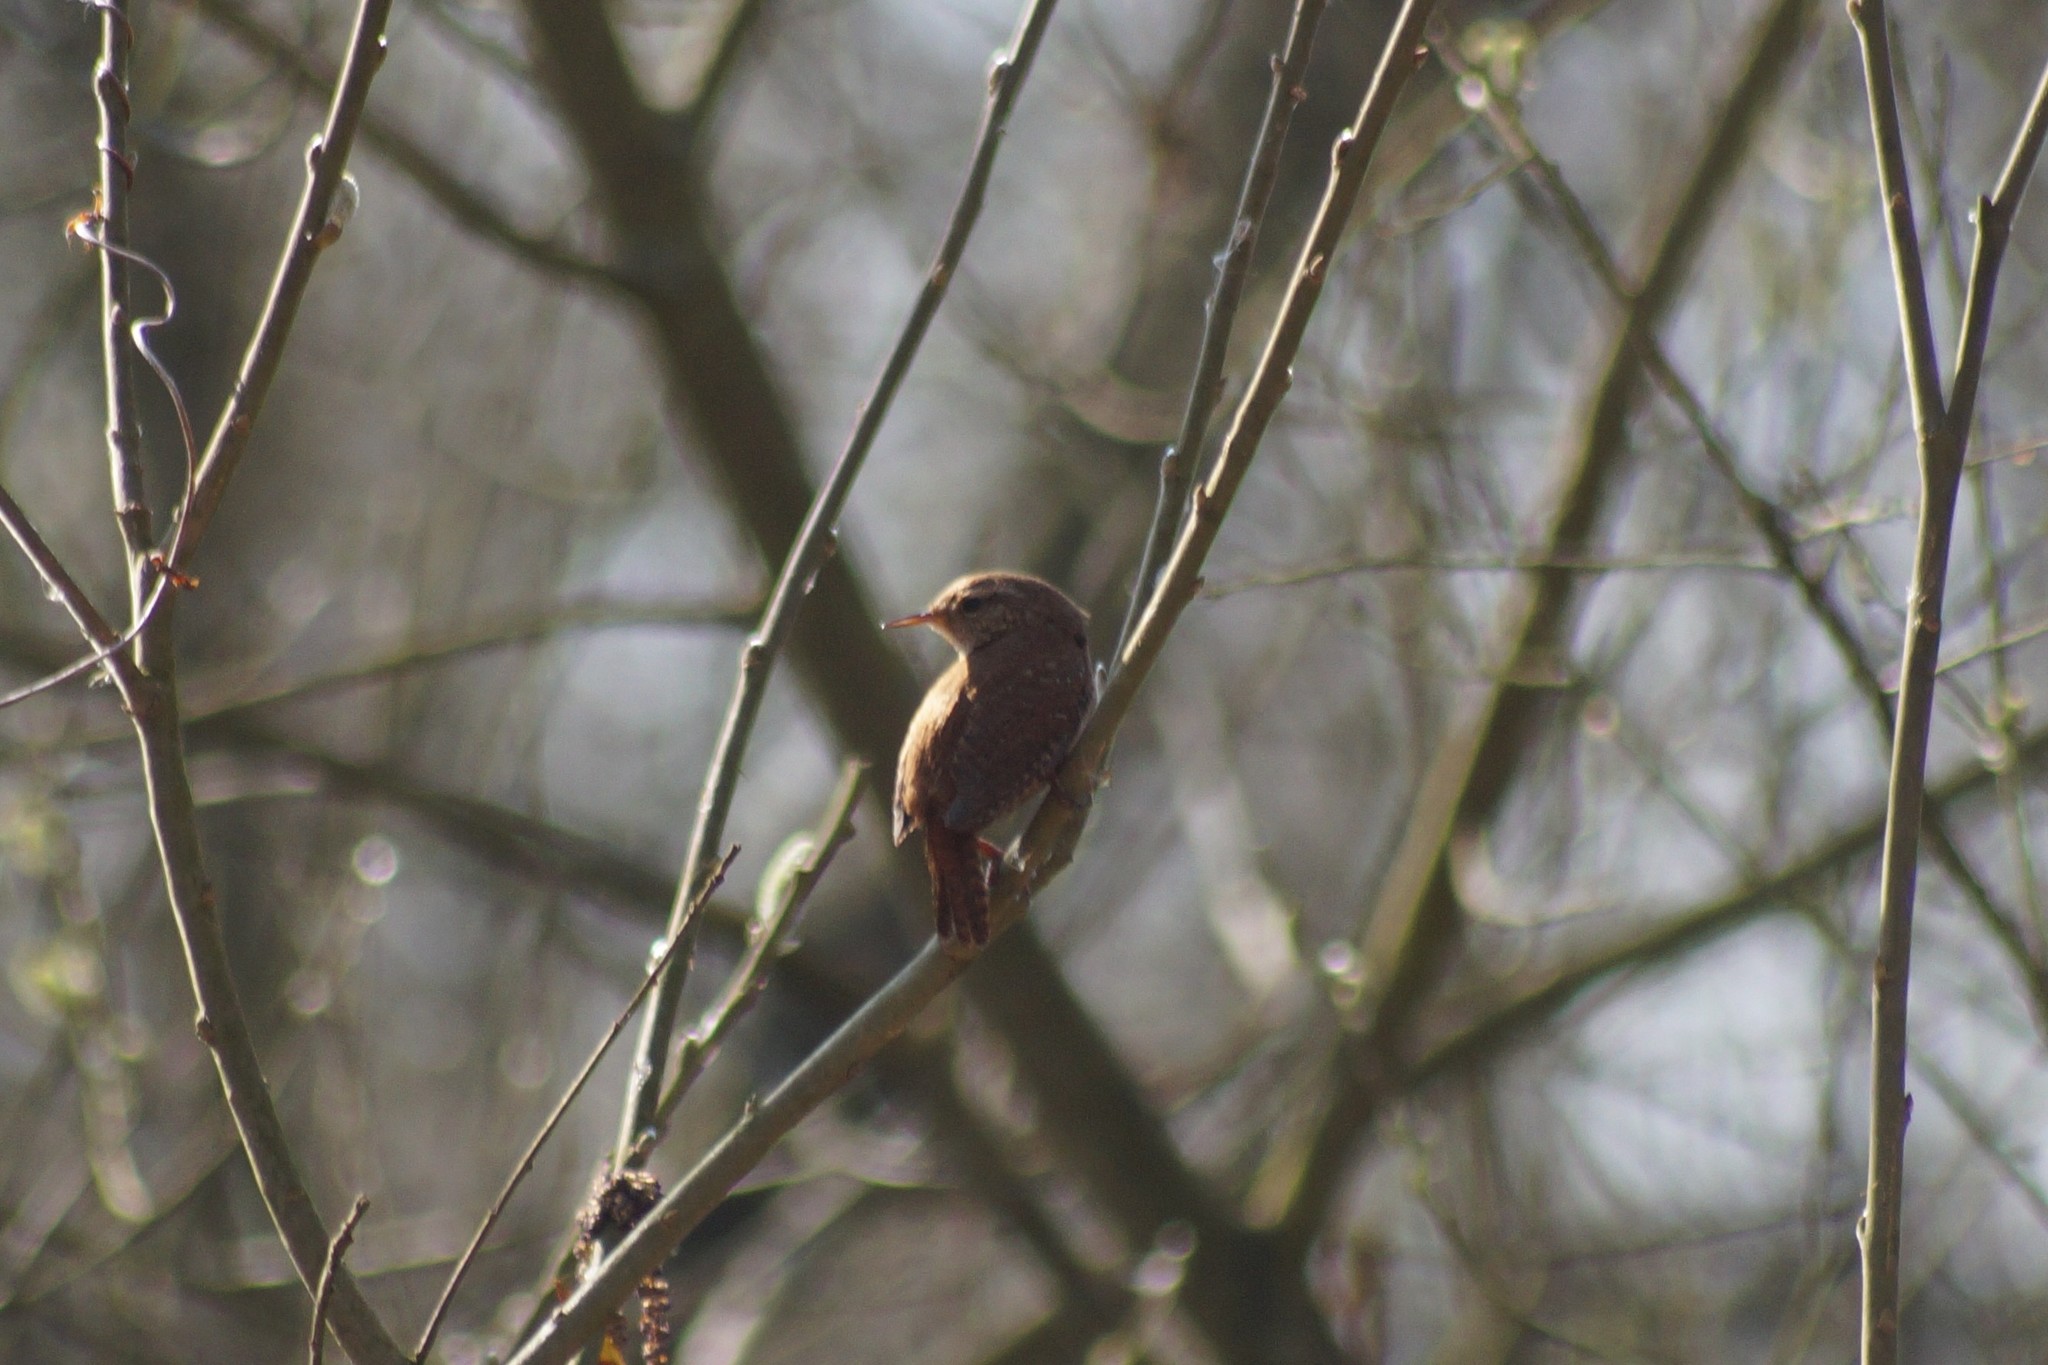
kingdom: Animalia
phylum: Chordata
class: Aves
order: Passeriformes
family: Troglodytidae
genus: Troglodytes
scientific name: Troglodytes troglodytes
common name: Eurasian wren
